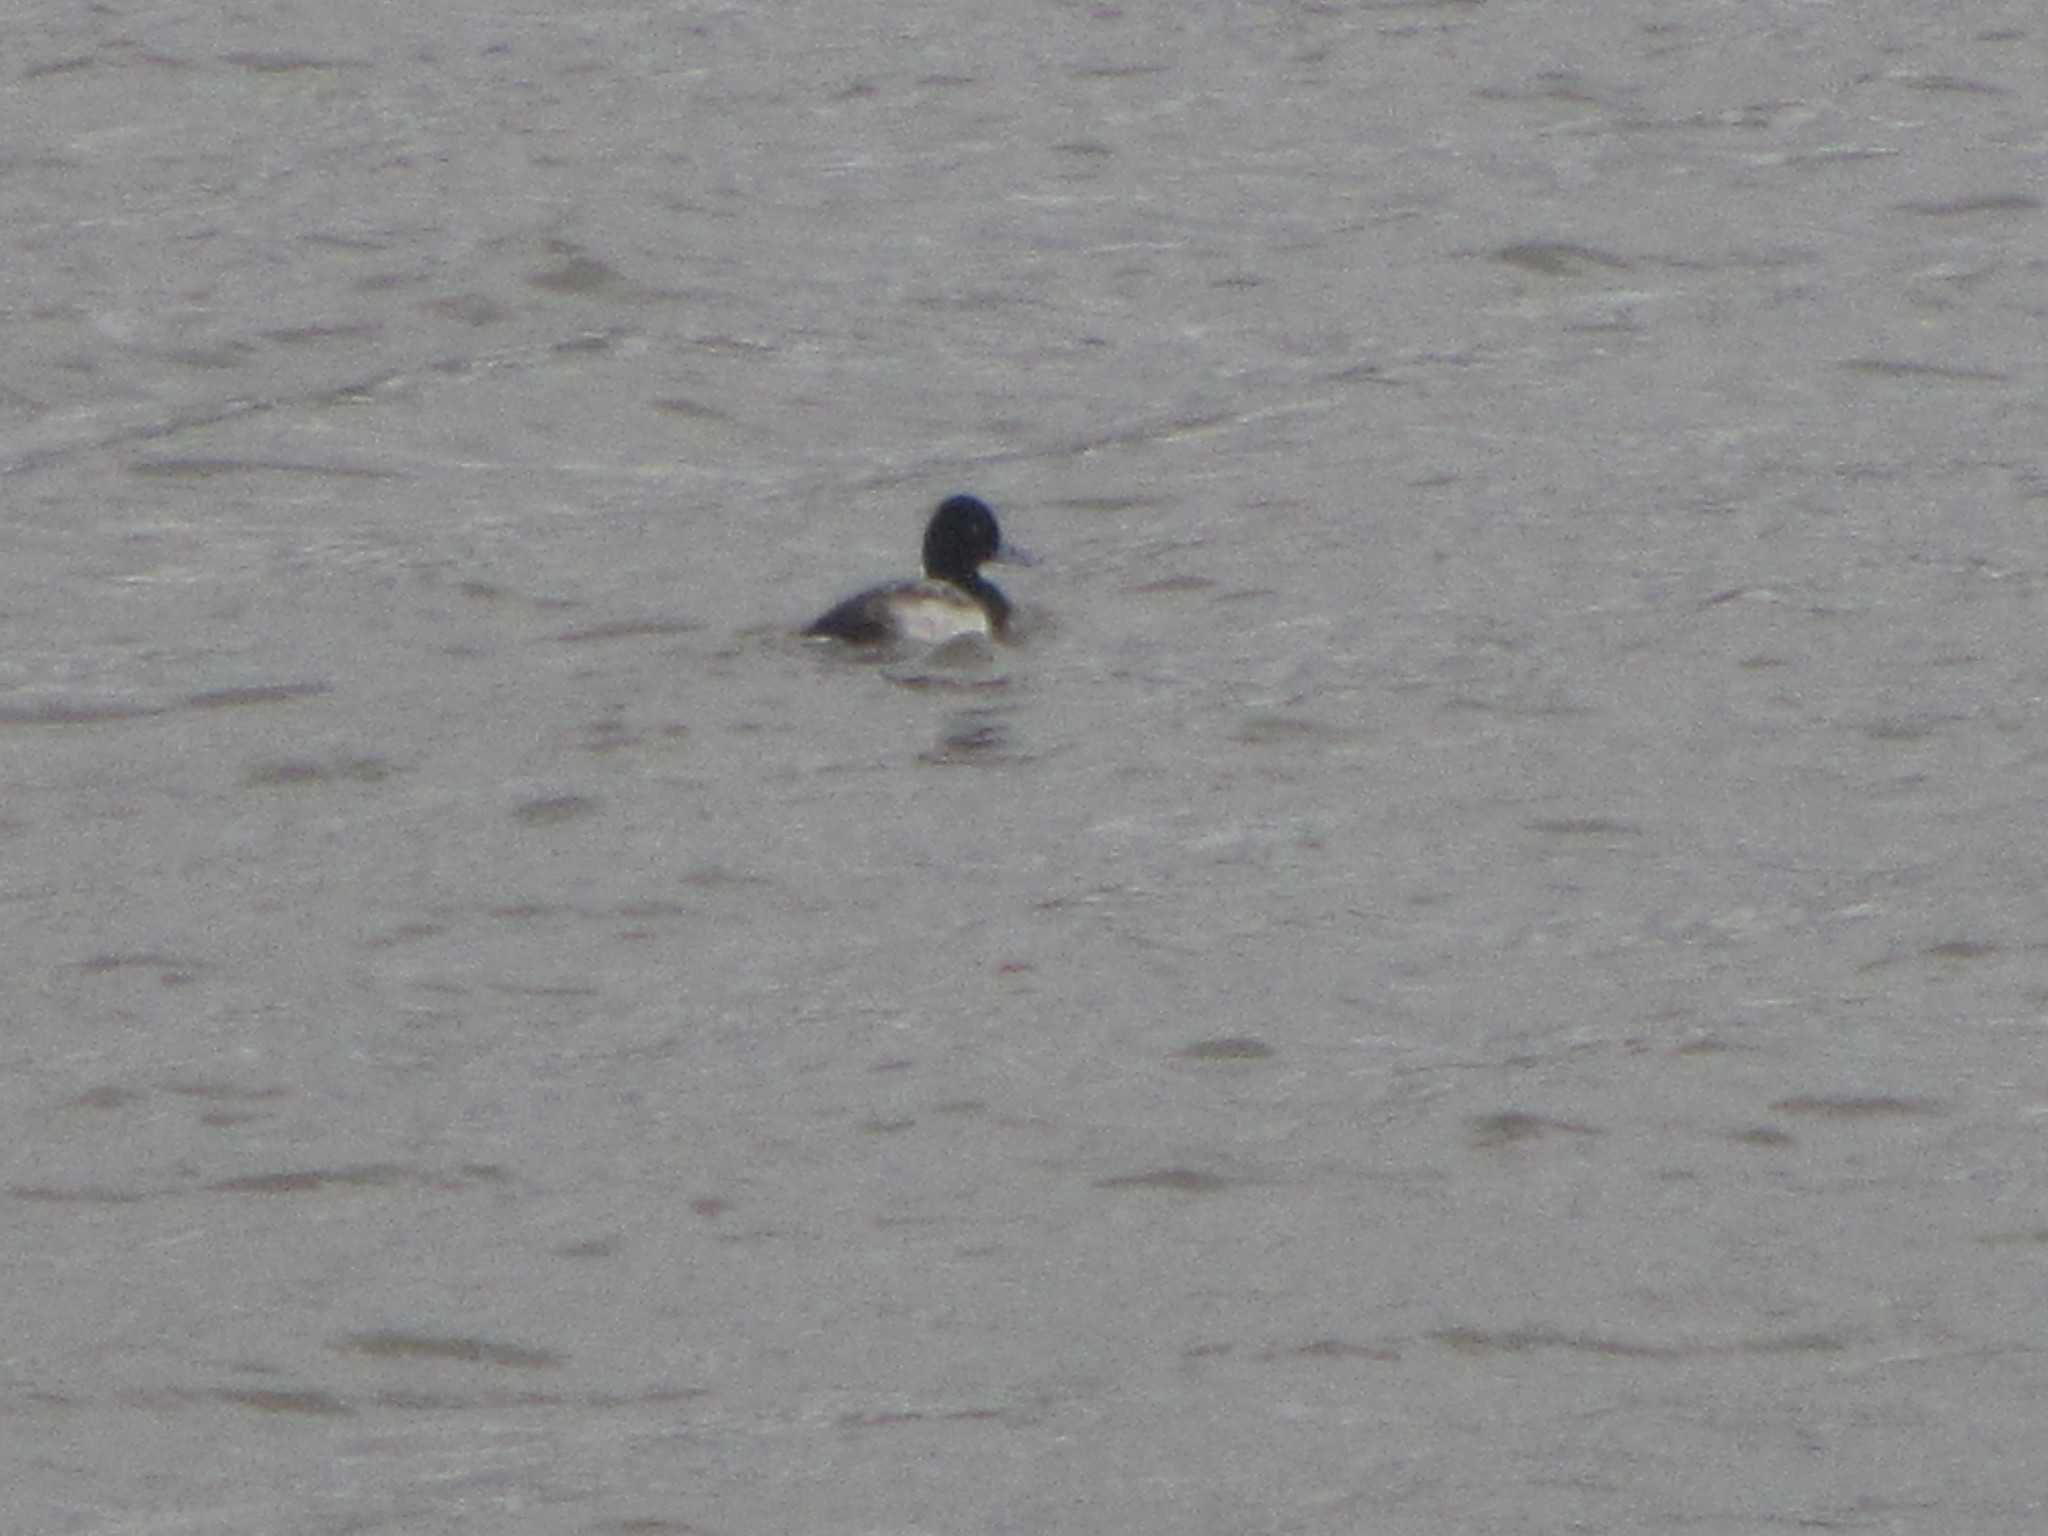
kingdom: Animalia
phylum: Chordata
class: Aves
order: Anseriformes
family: Anatidae
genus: Aythya
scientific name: Aythya affinis
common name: Lesser scaup
